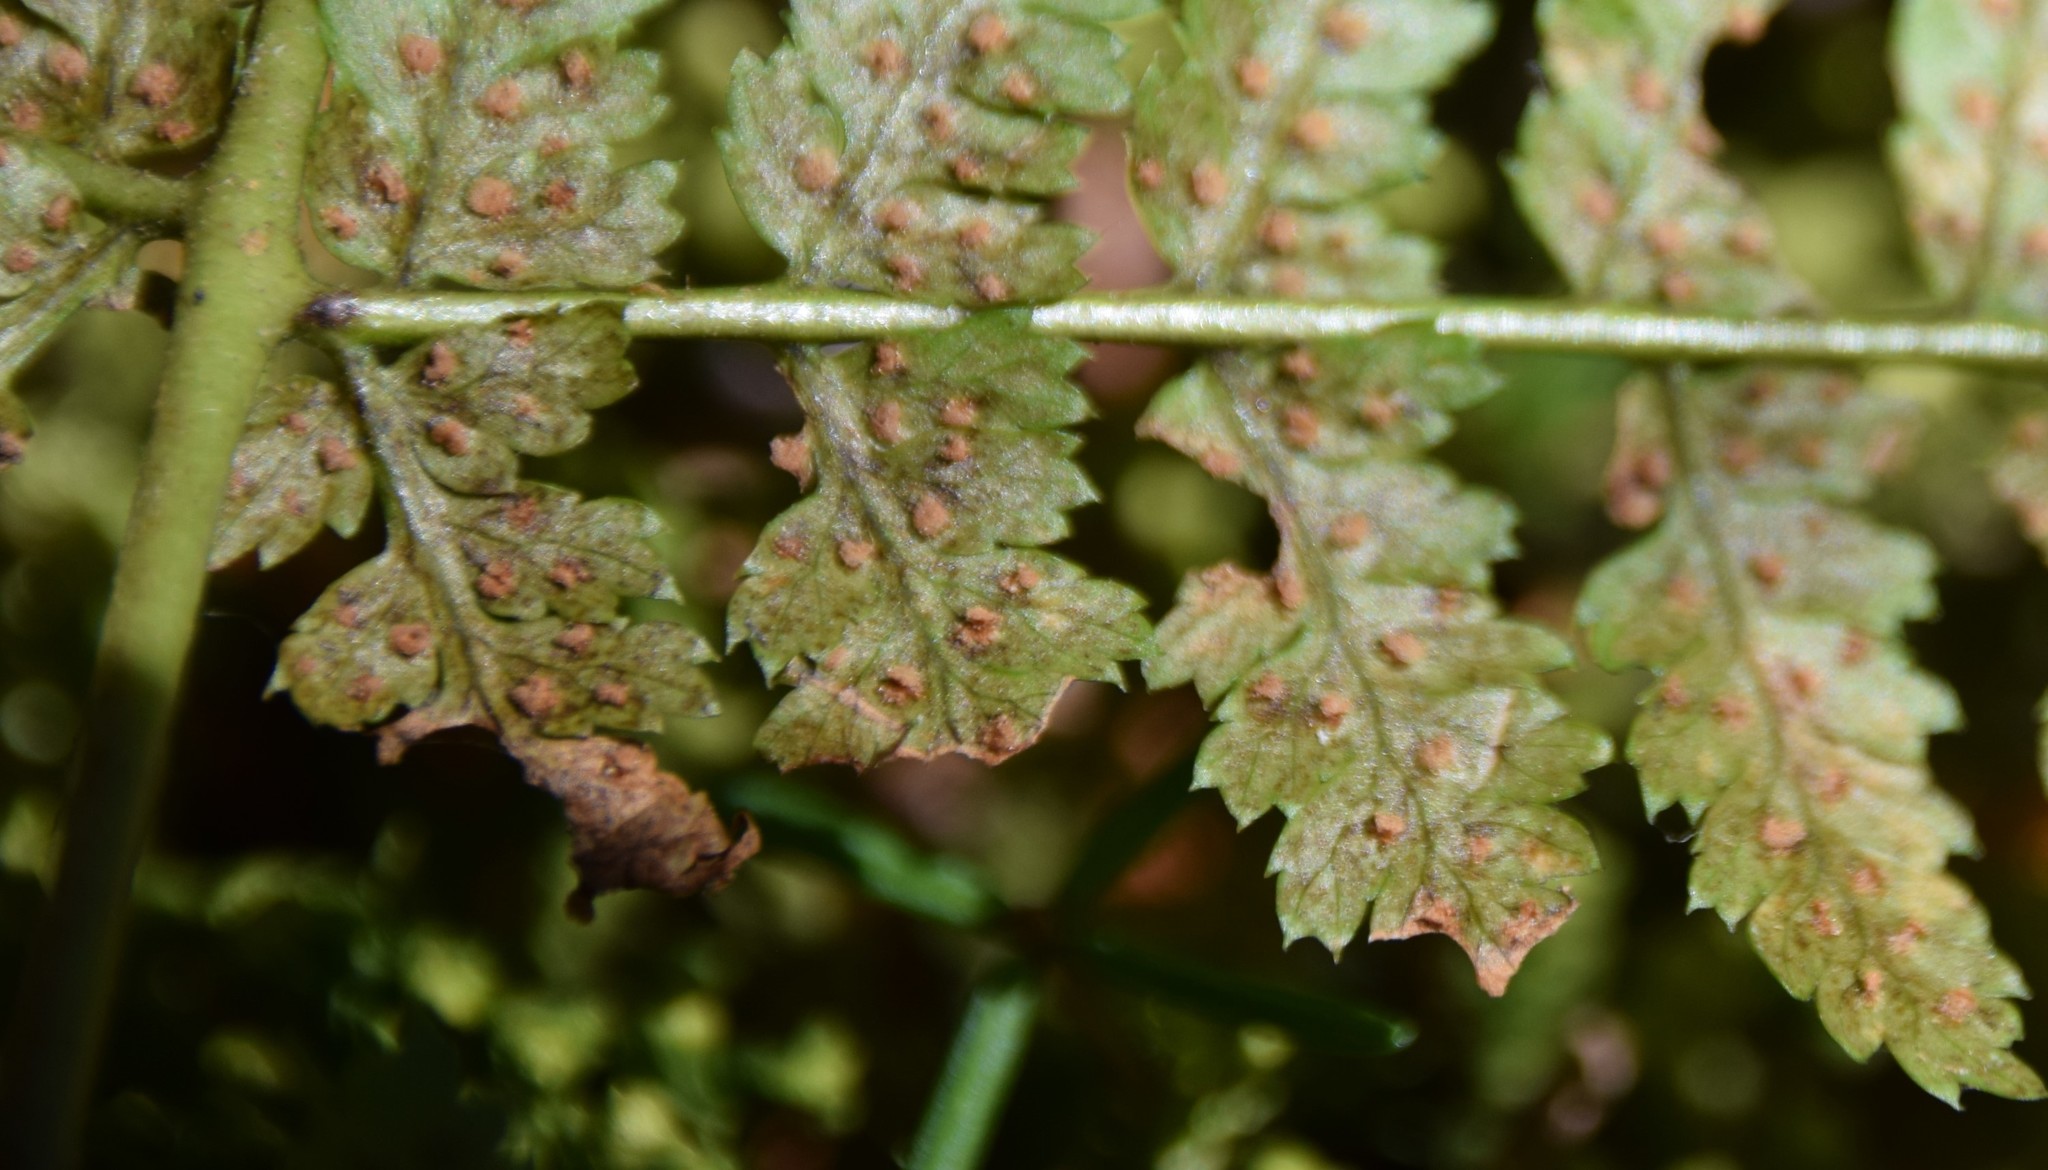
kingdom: Plantae
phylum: Tracheophyta
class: Polypodiopsida
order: Polypodiales
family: Dryopteridaceae
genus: Dryopteris
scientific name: Dryopteris intermedia
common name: Evergreen wood fern
